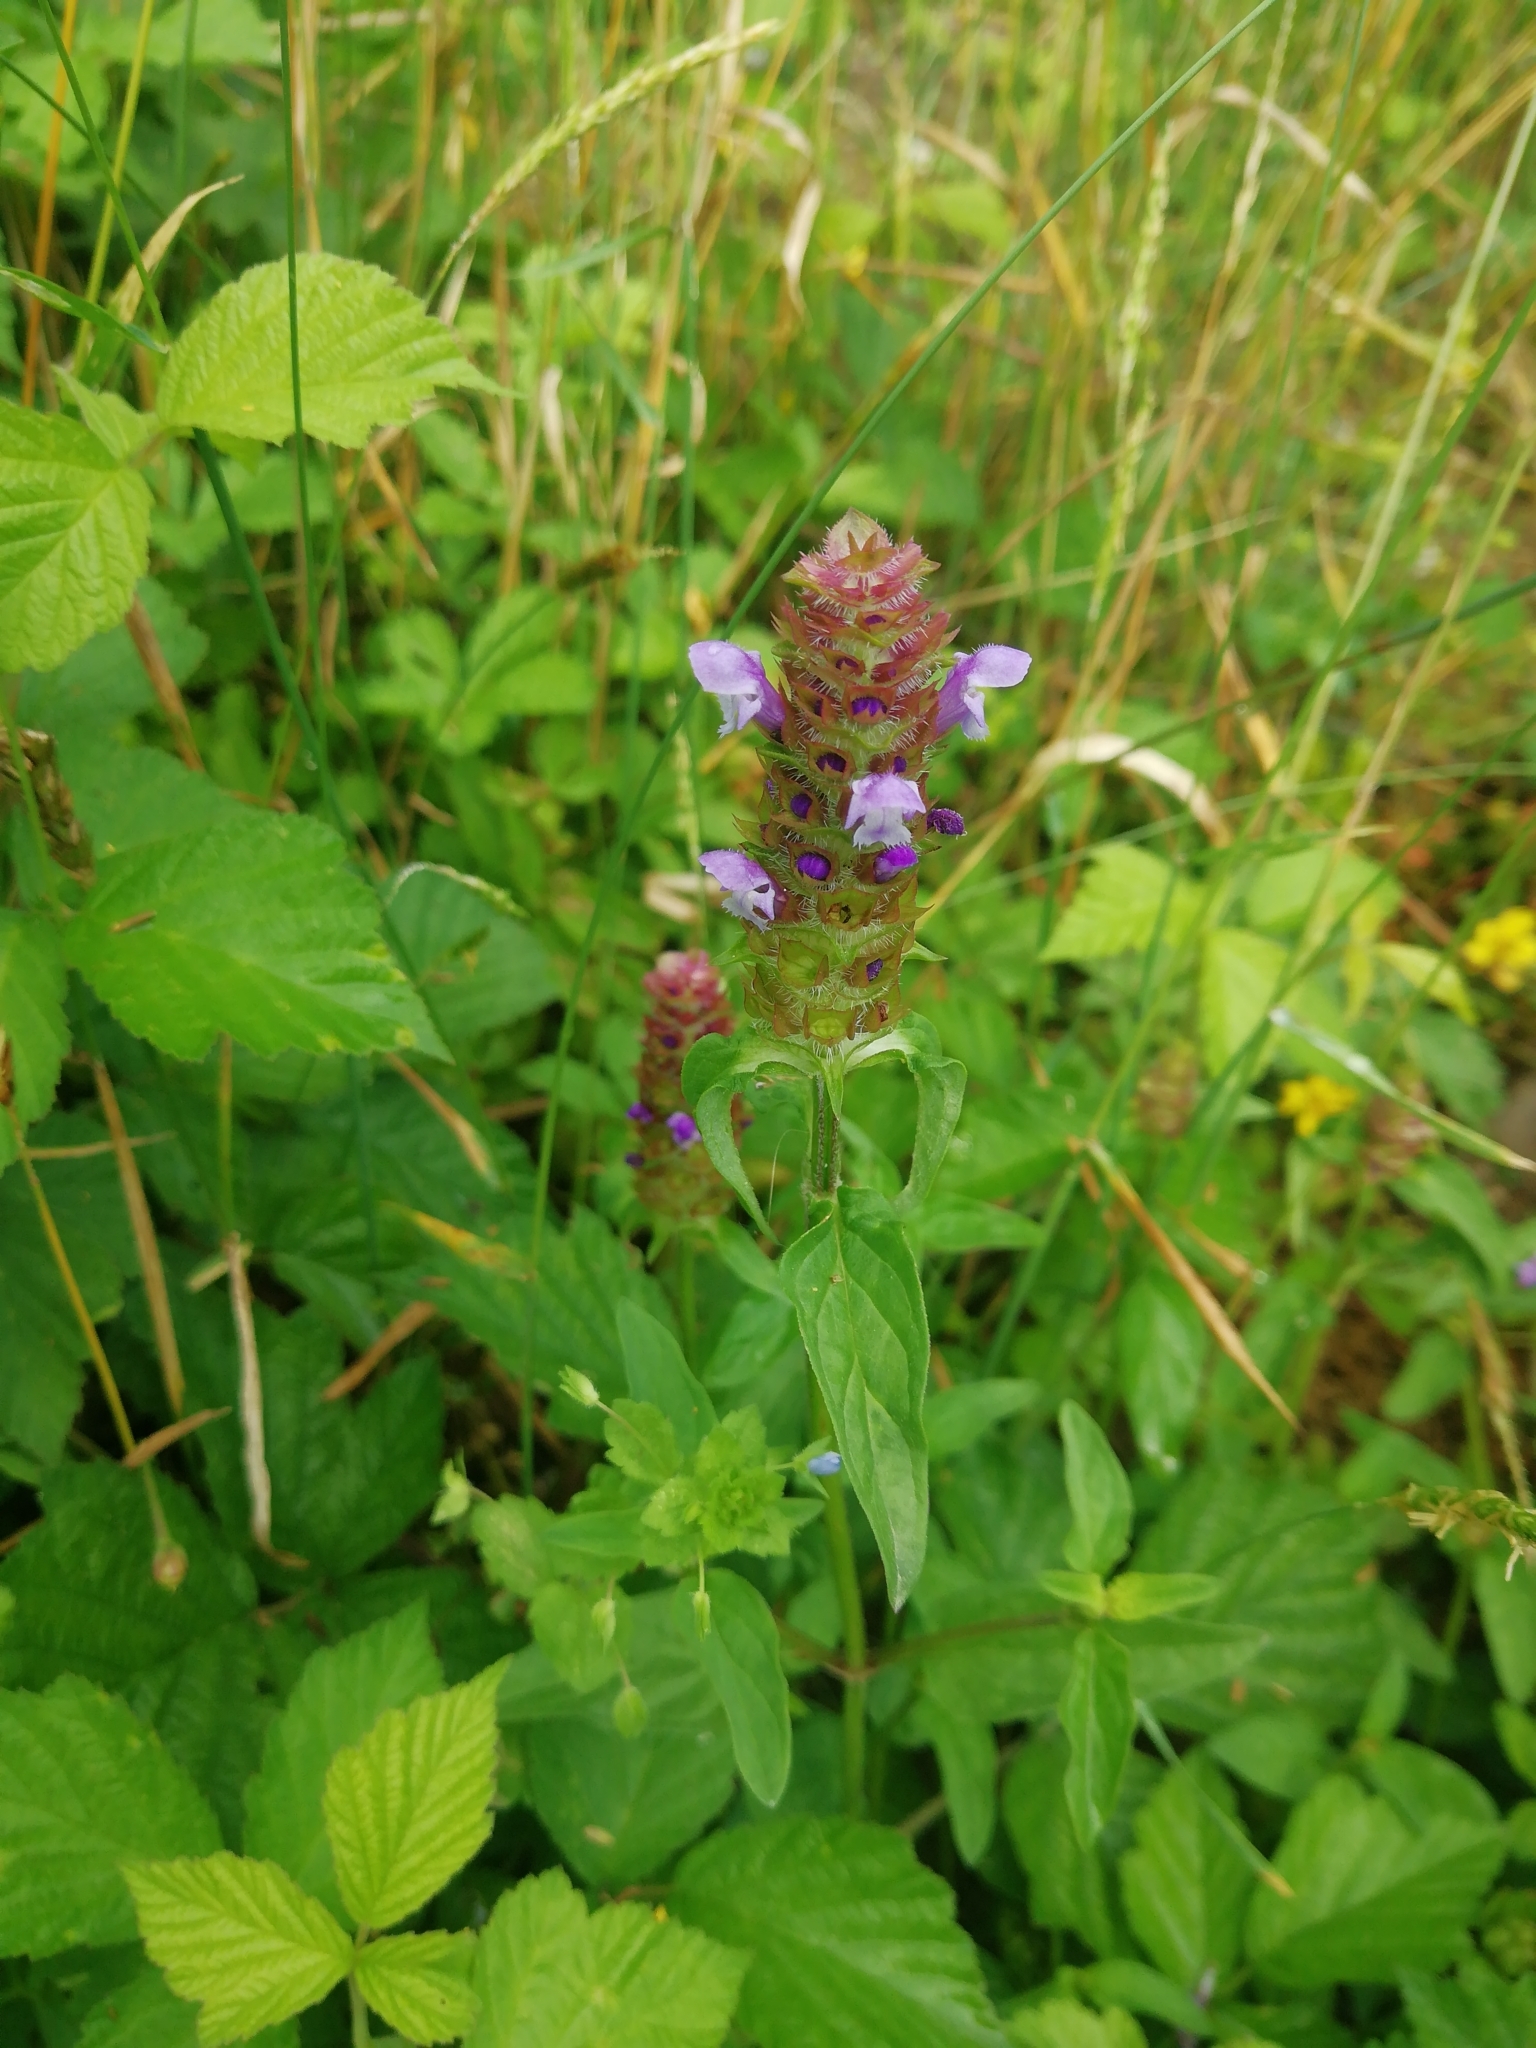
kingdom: Plantae
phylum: Tracheophyta
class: Magnoliopsida
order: Lamiales
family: Lamiaceae
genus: Prunella
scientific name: Prunella vulgaris
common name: Heal-all
